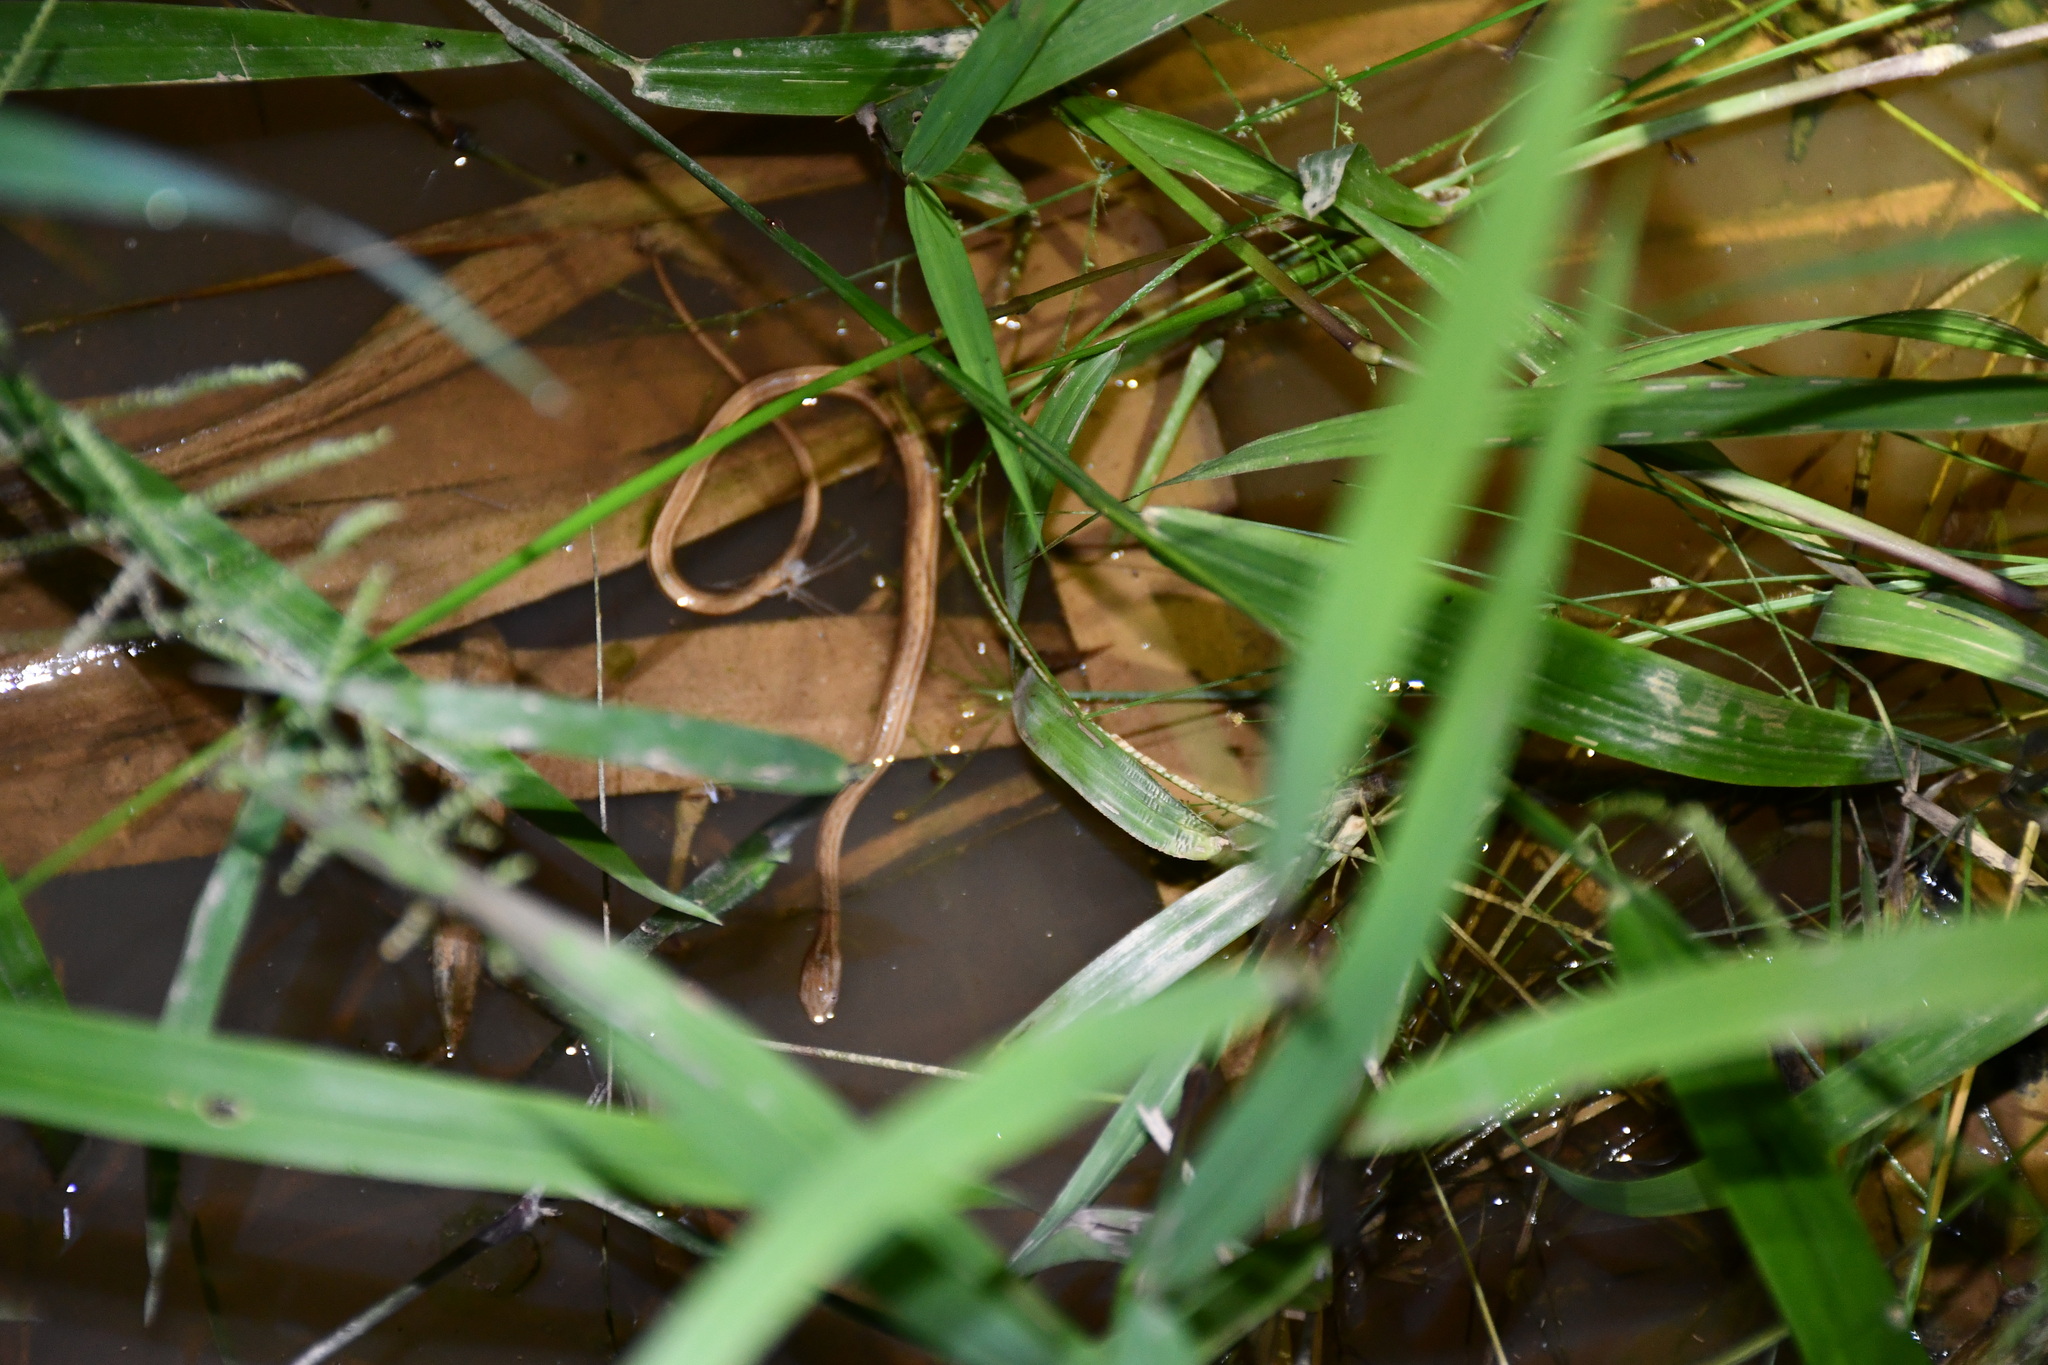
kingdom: Animalia
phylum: Chordata
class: Squamata
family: Colubridae
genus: Thamnodynastes
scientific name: Thamnodynastes pallidus
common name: Amazon coastal house snake
